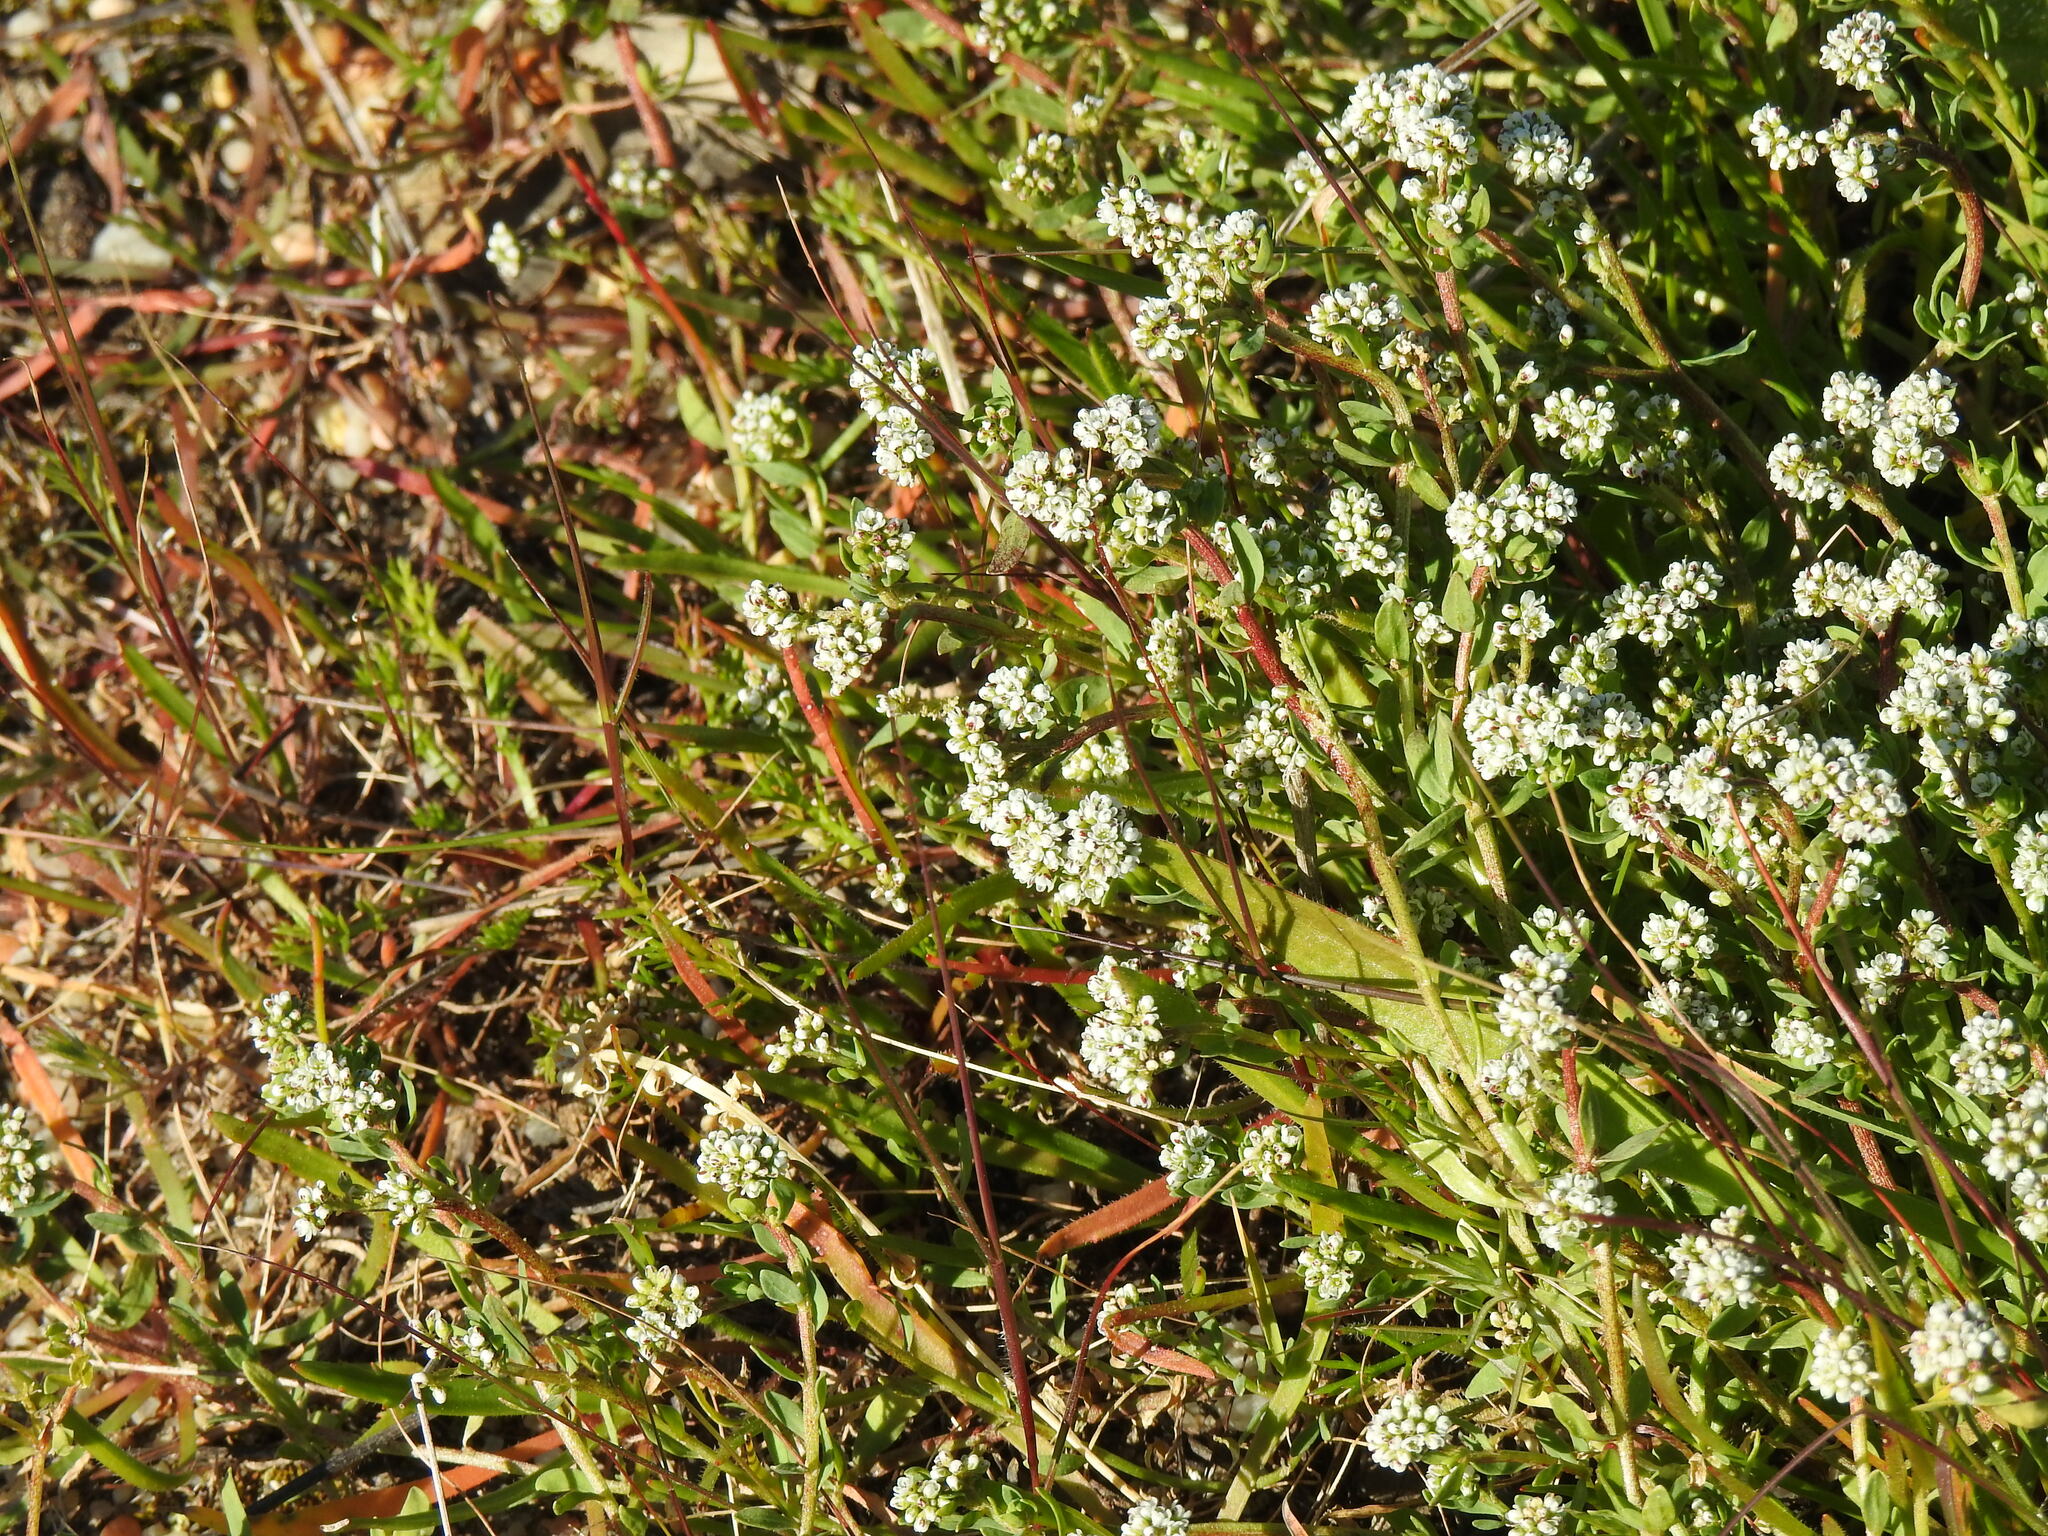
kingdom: Plantae
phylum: Tracheophyta
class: Magnoliopsida
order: Caryophyllales
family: Caryophyllaceae
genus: Corrigiola
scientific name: Corrigiola litoralis
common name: Strapwort
